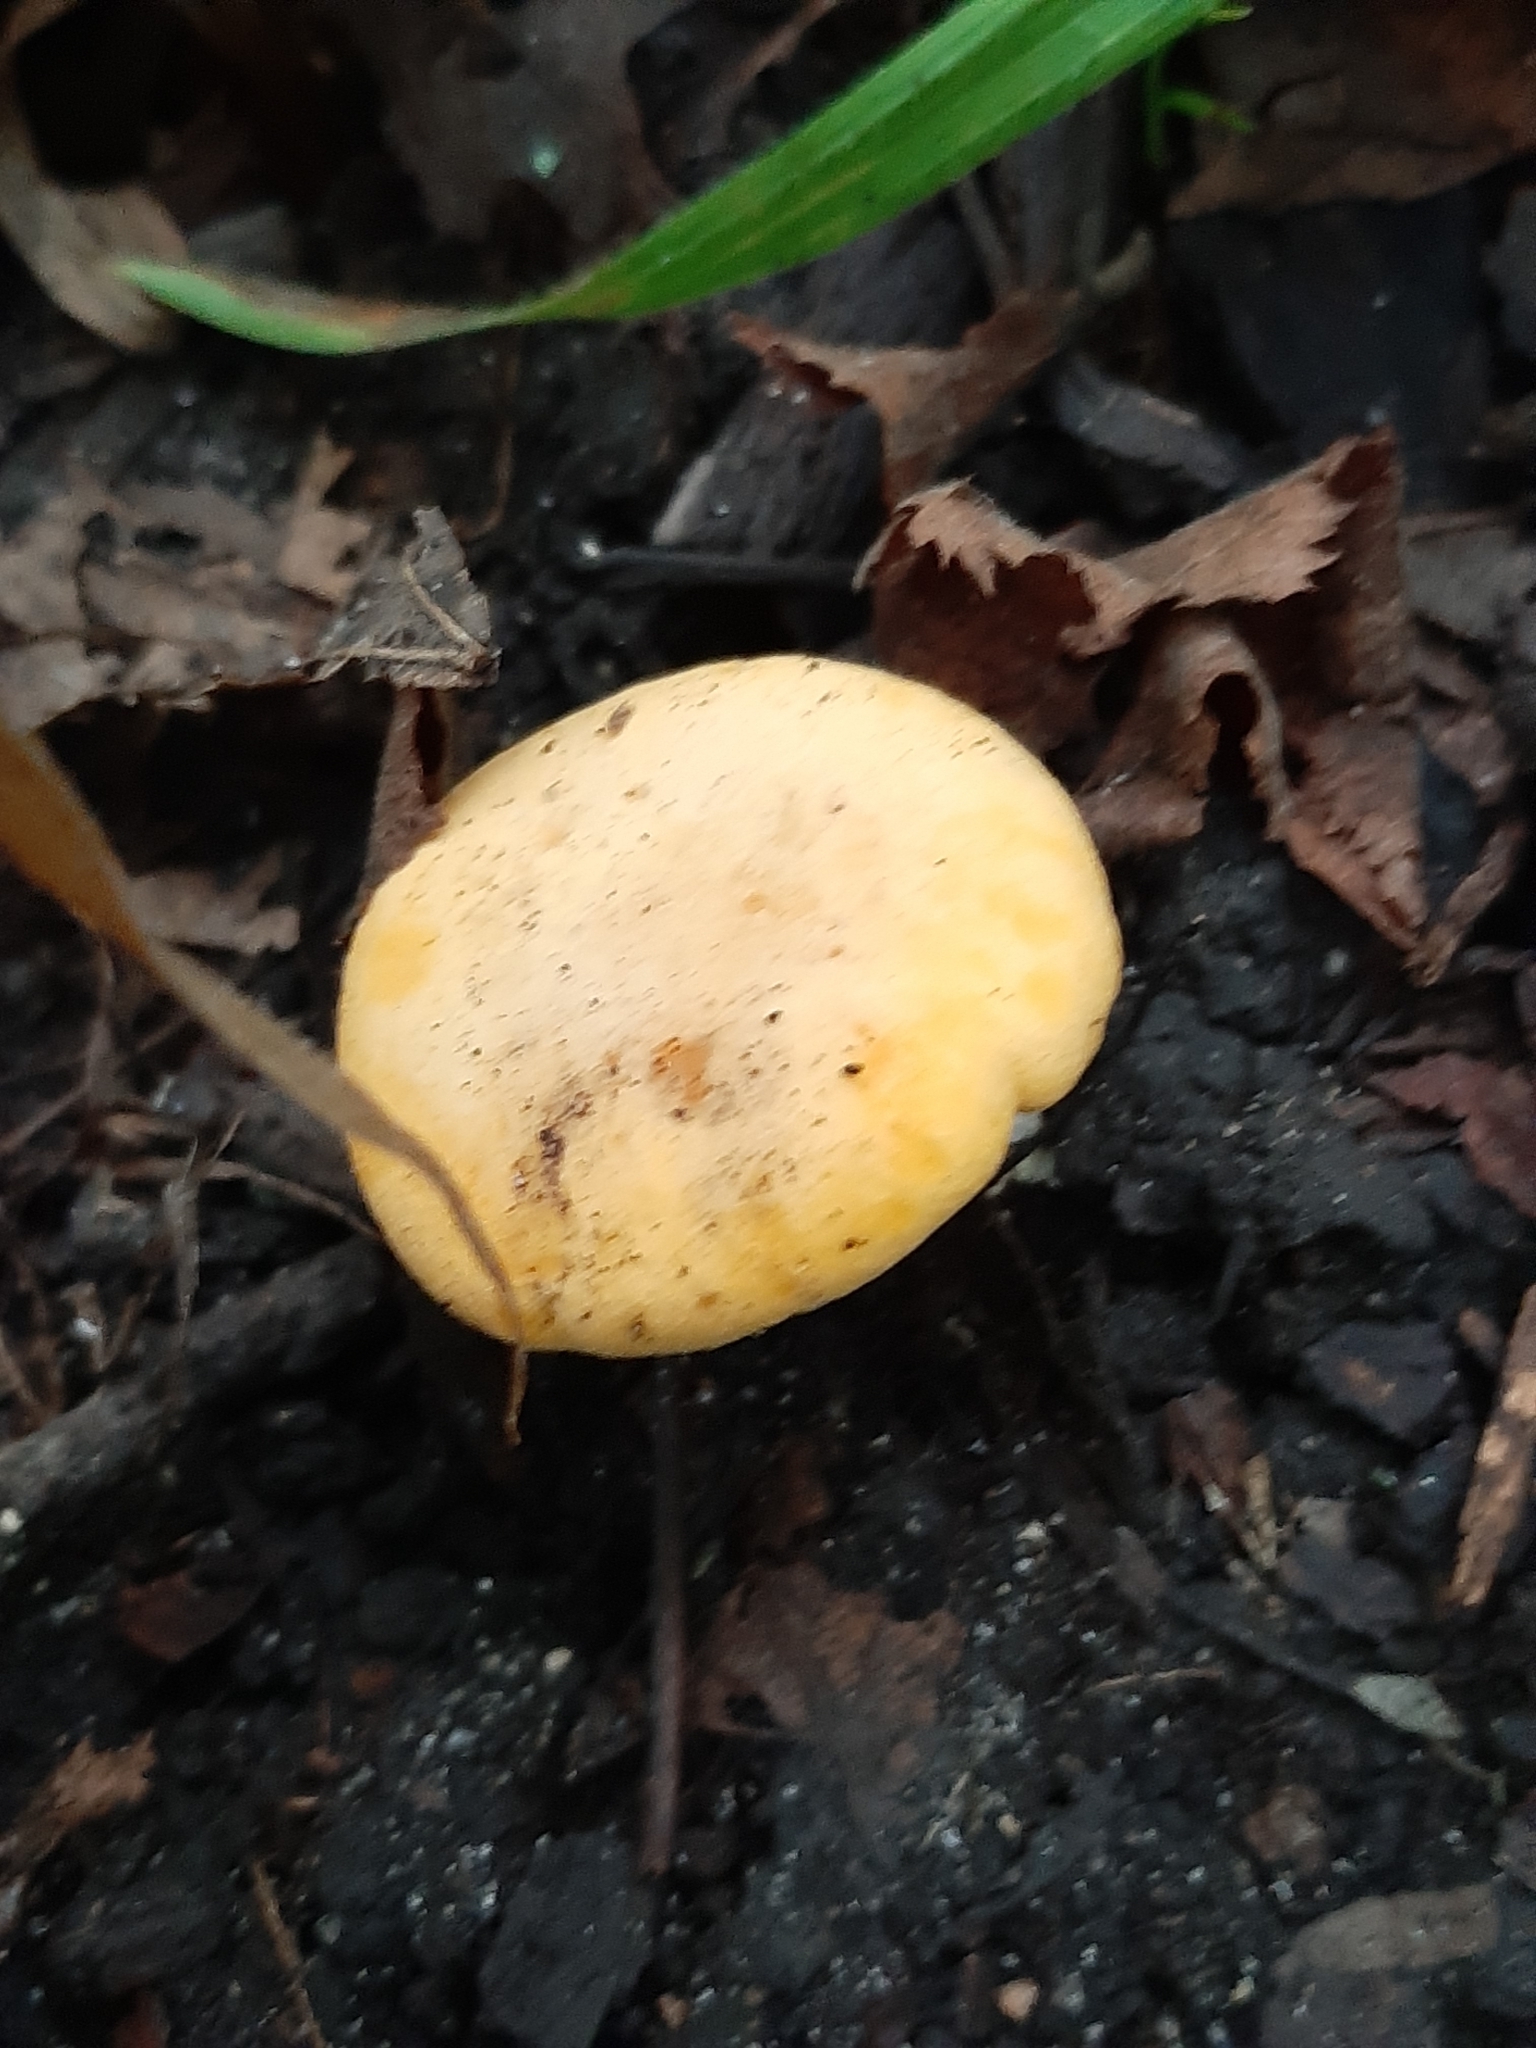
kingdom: Fungi
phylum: Basidiomycota
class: Agaricomycetes
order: Cantharellales
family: Hydnaceae
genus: Cantharellus
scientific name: Cantharellus phasmatis
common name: Ghost chanterelle
